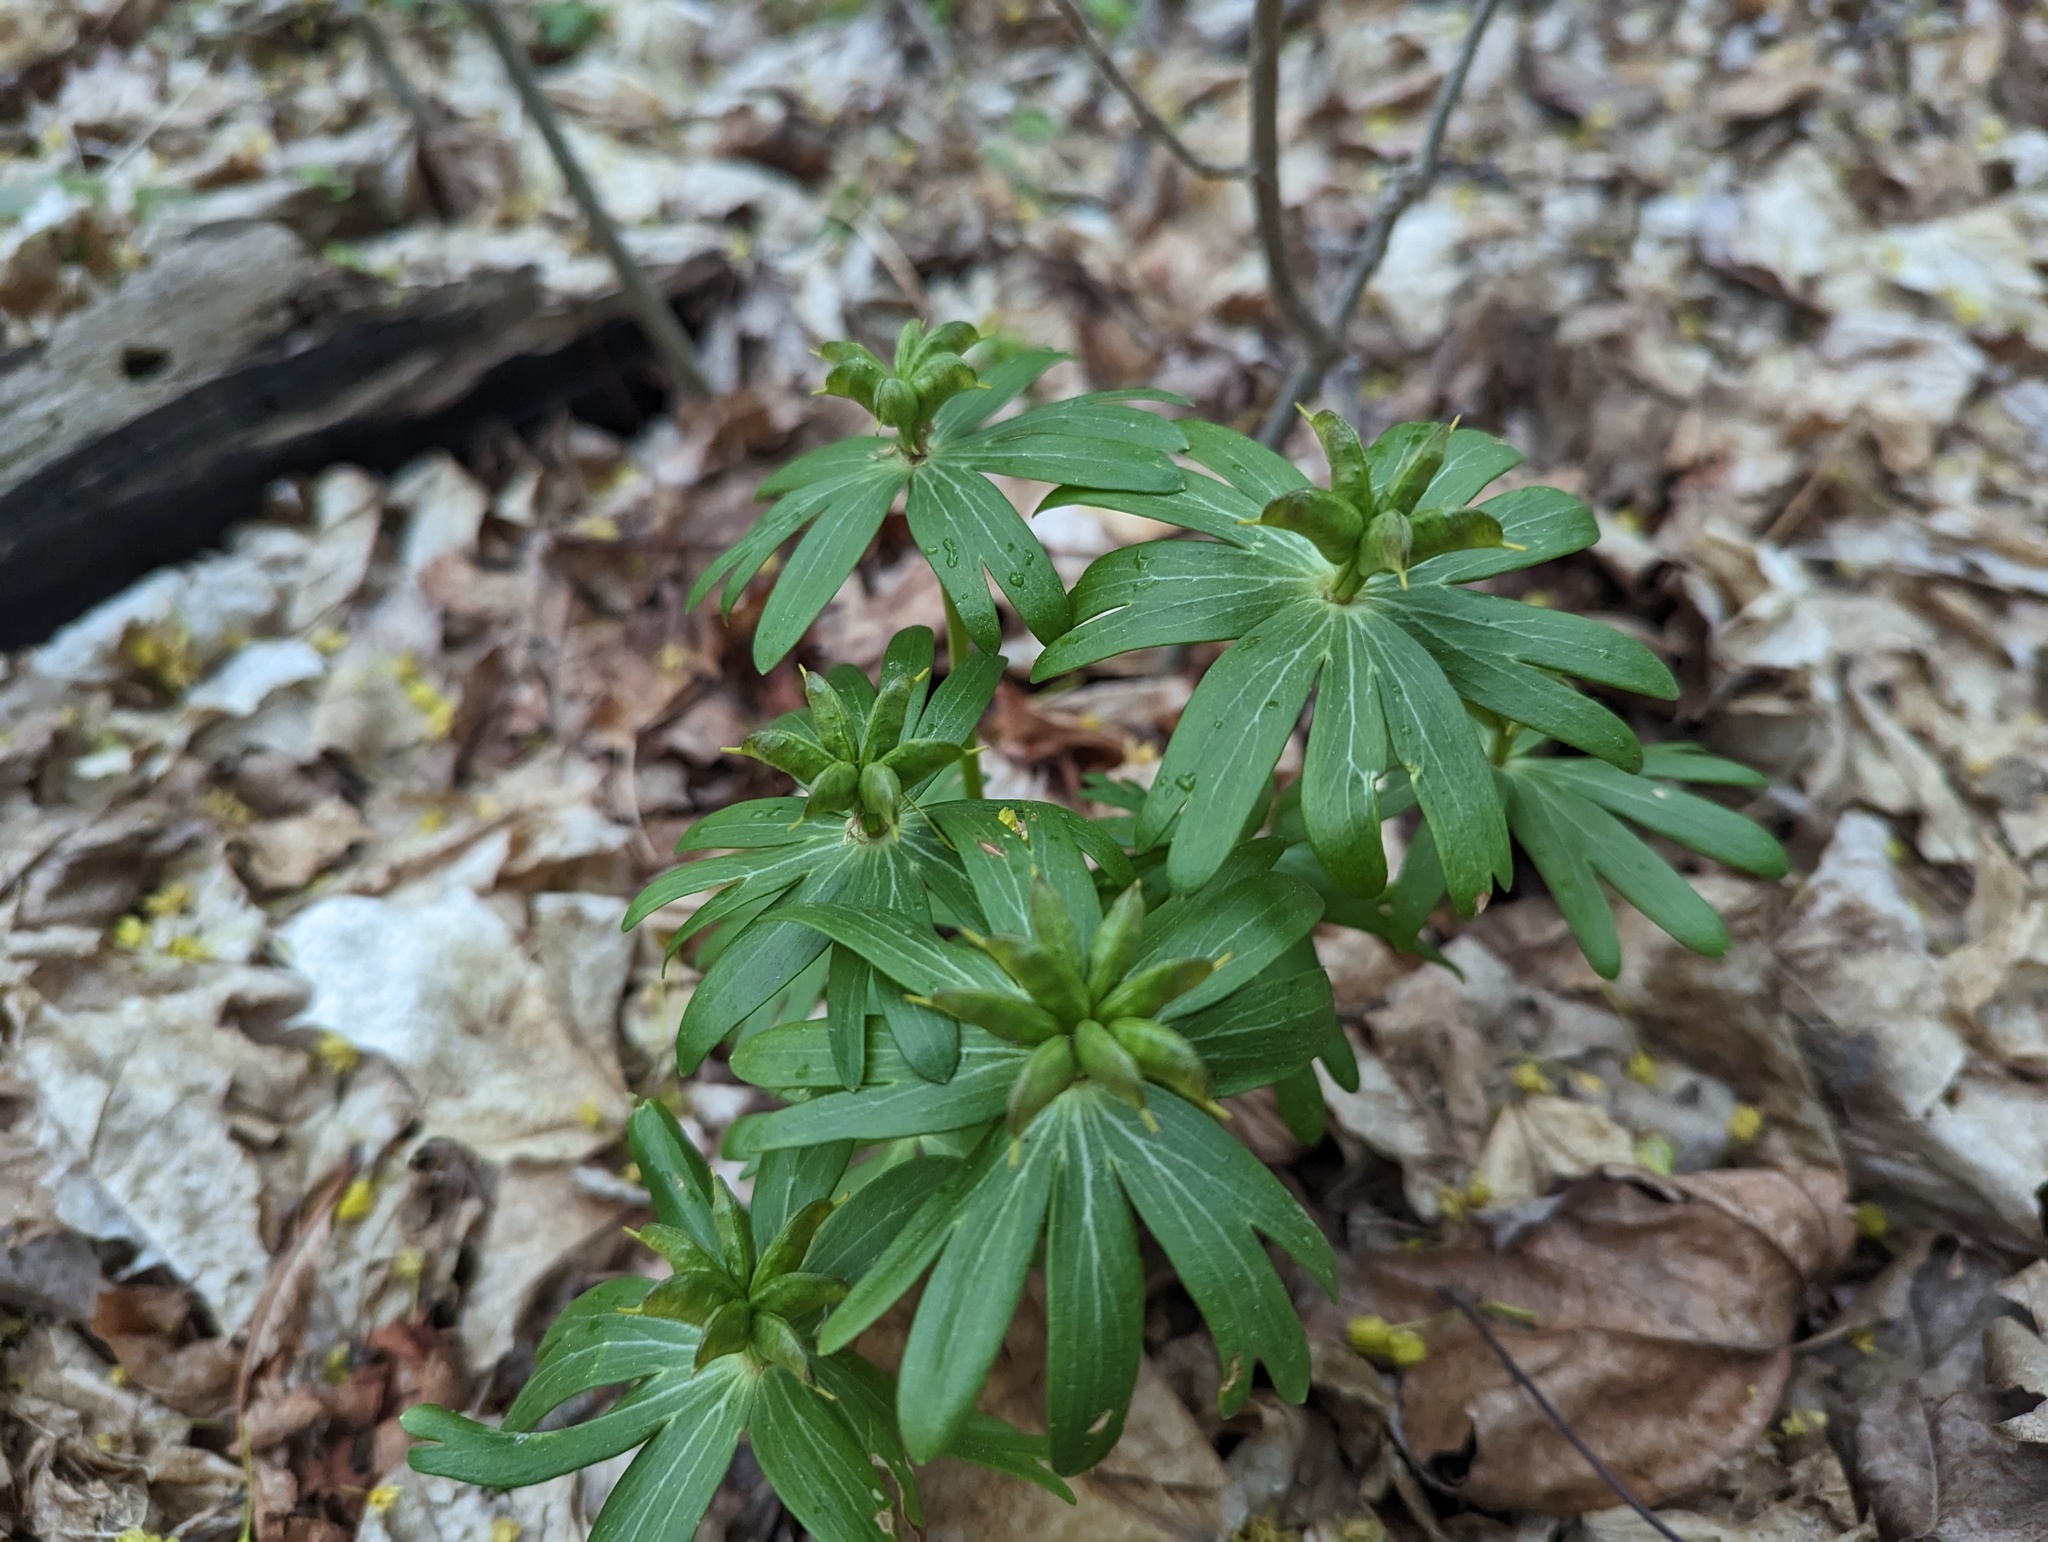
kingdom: Plantae
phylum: Tracheophyta
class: Magnoliopsida
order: Ranunculales
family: Ranunculaceae
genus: Eranthis
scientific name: Eranthis hyemalis
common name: Winter aconite
